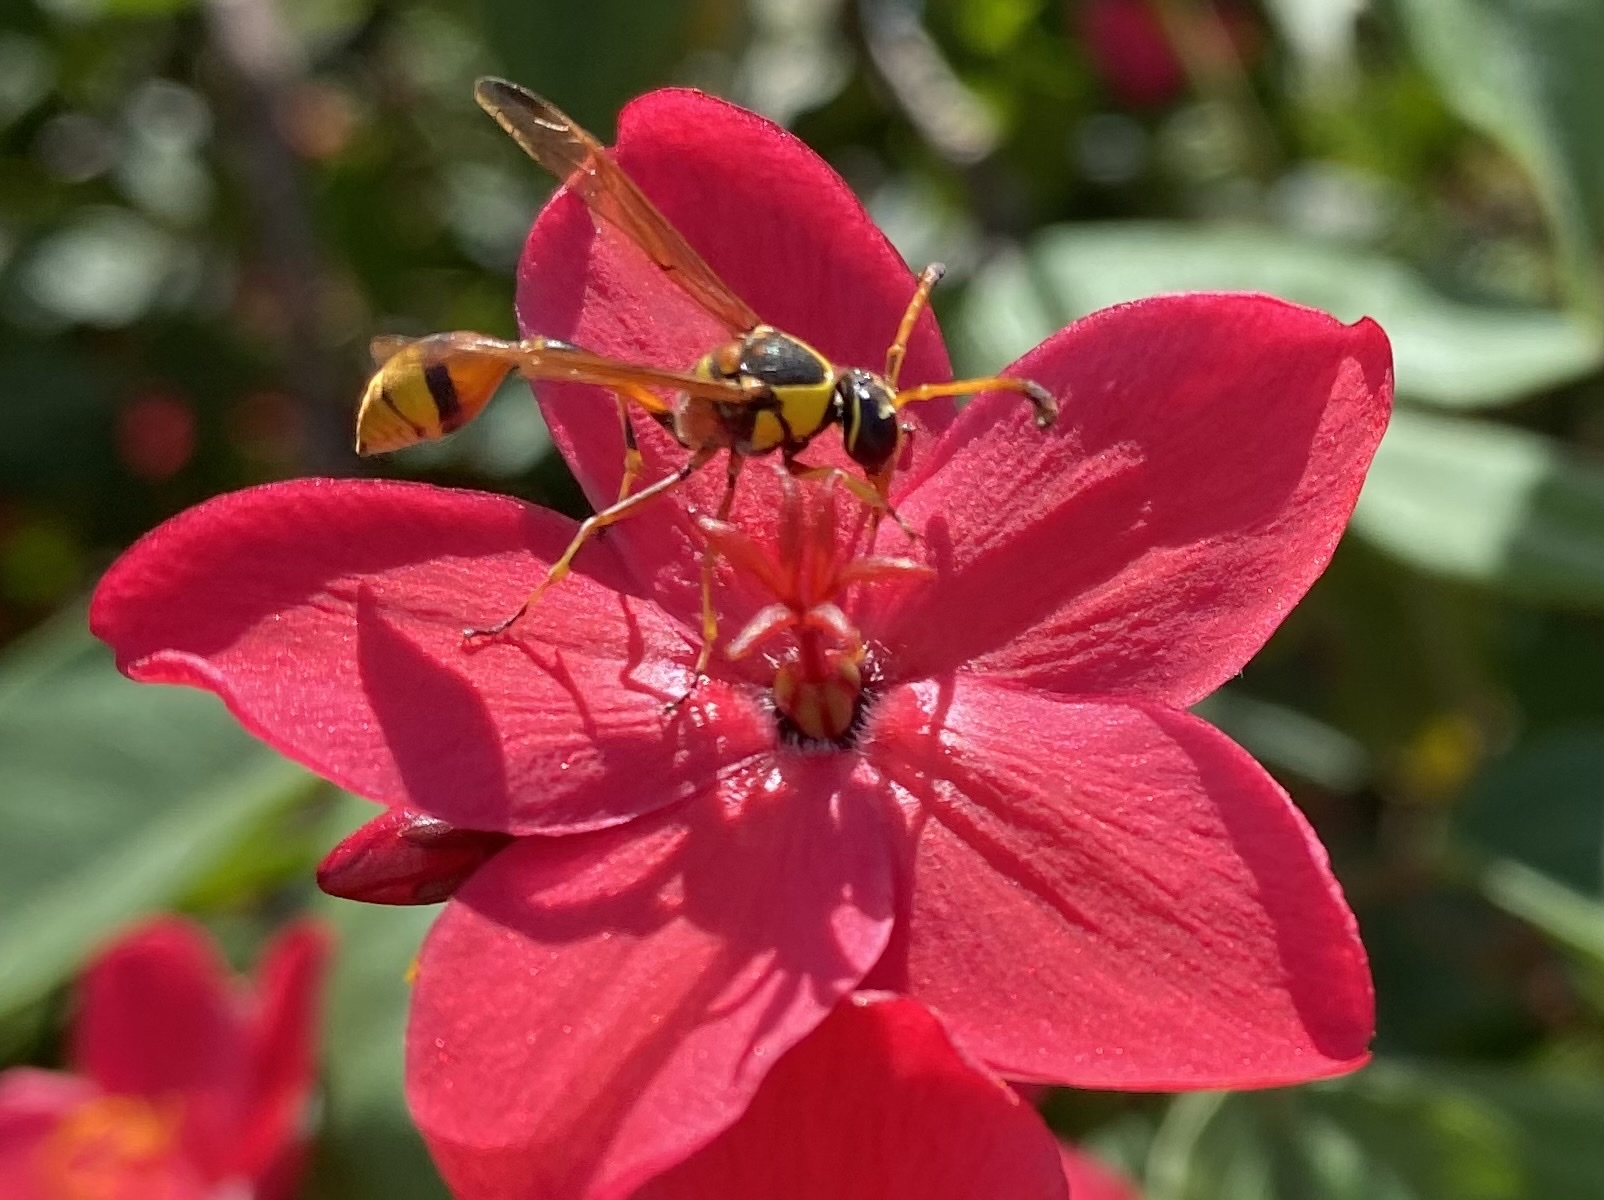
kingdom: Animalia
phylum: Arthropoda
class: Insecta
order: Hymenoptera
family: Eumenidae
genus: Delta
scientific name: Delta esuriens
